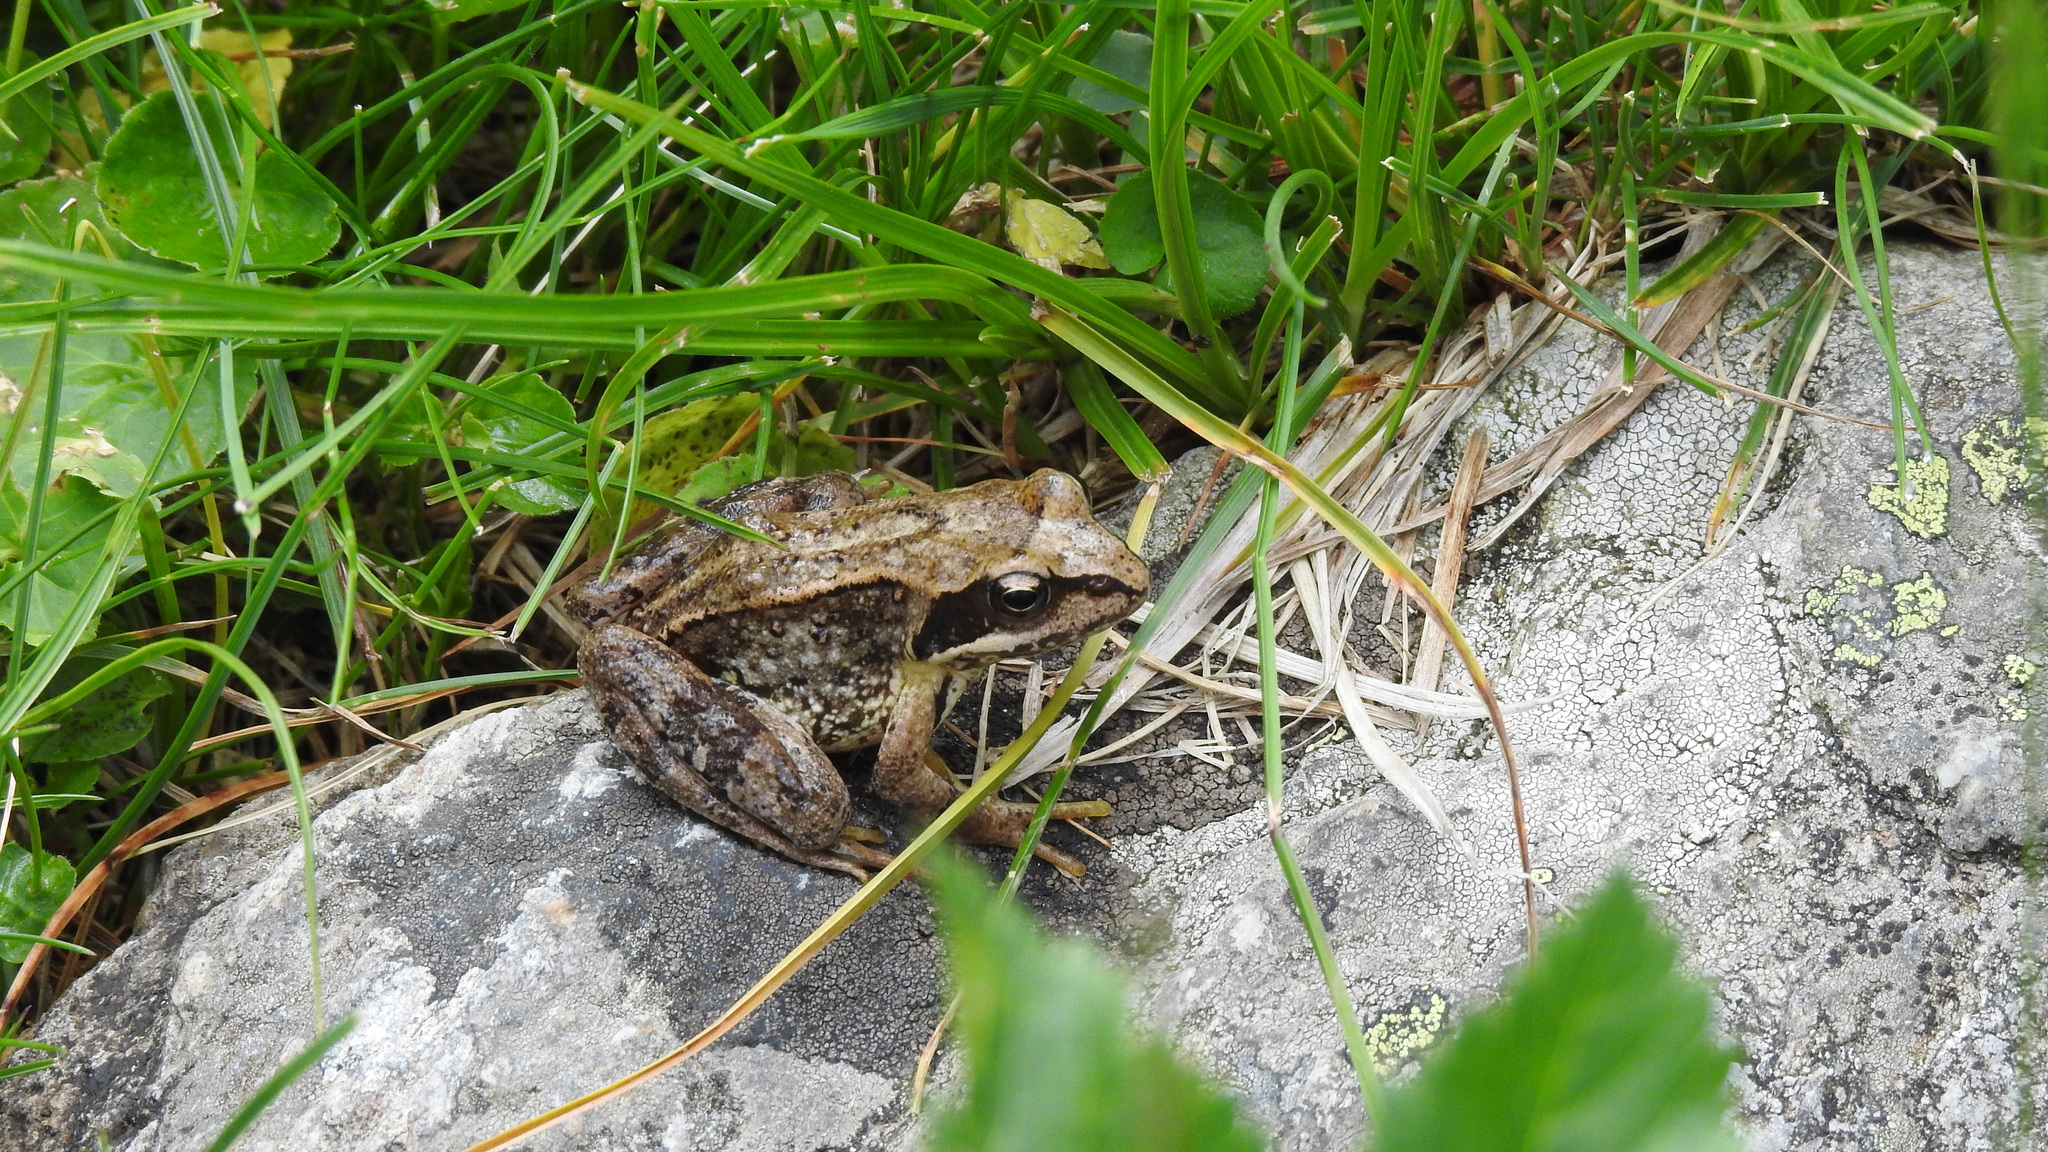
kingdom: Animalia
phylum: Chordata
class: Amphibia
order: Anura
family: Ranidae
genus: Rana
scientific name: Rana temporaria
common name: Common frog
